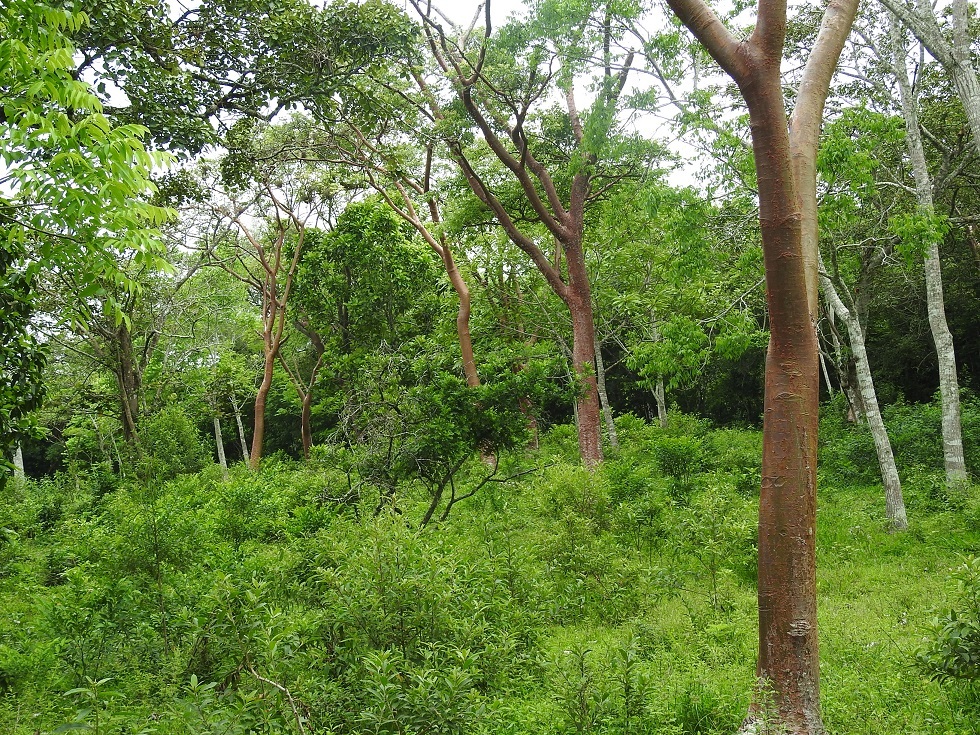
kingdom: Plantae
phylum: Tracheophyta
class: Magnoliopsida
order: Sapindales
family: Burseraceae
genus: Bursera
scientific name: Bursera simaruba
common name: Turpentine tree
